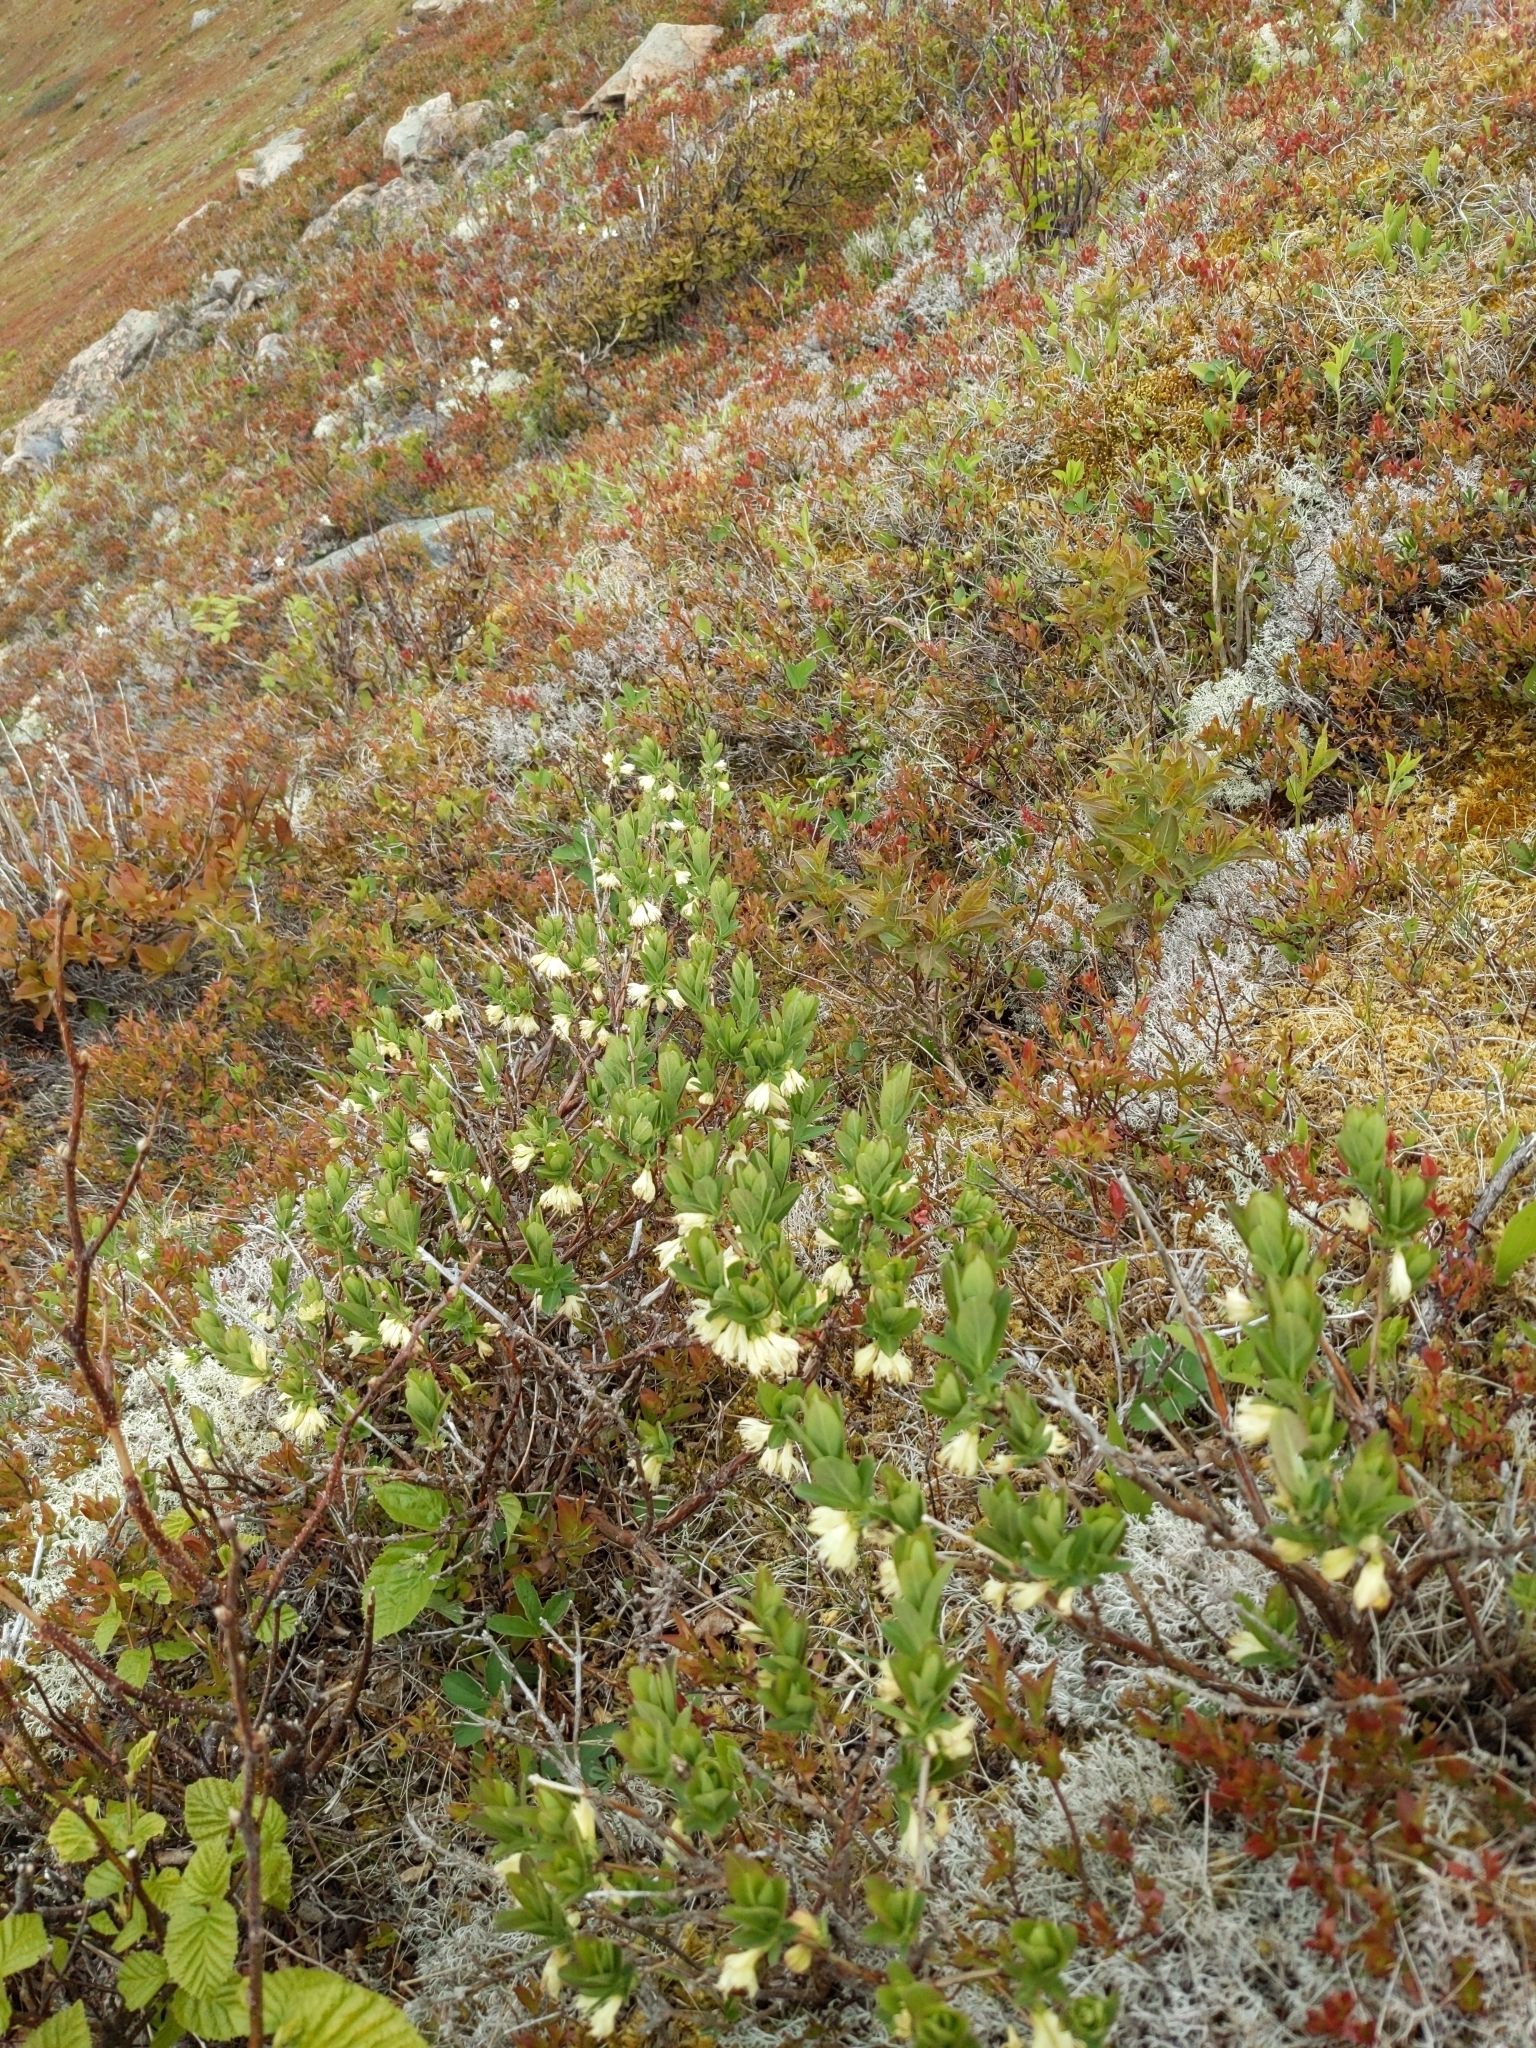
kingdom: Plantae
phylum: Tracheophyta
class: Magnoliopsida
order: Dipsacales
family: Caprifoliaceae
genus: Lonicera
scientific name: Lonicera villosa
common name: Mountain fly-honeysuckle
